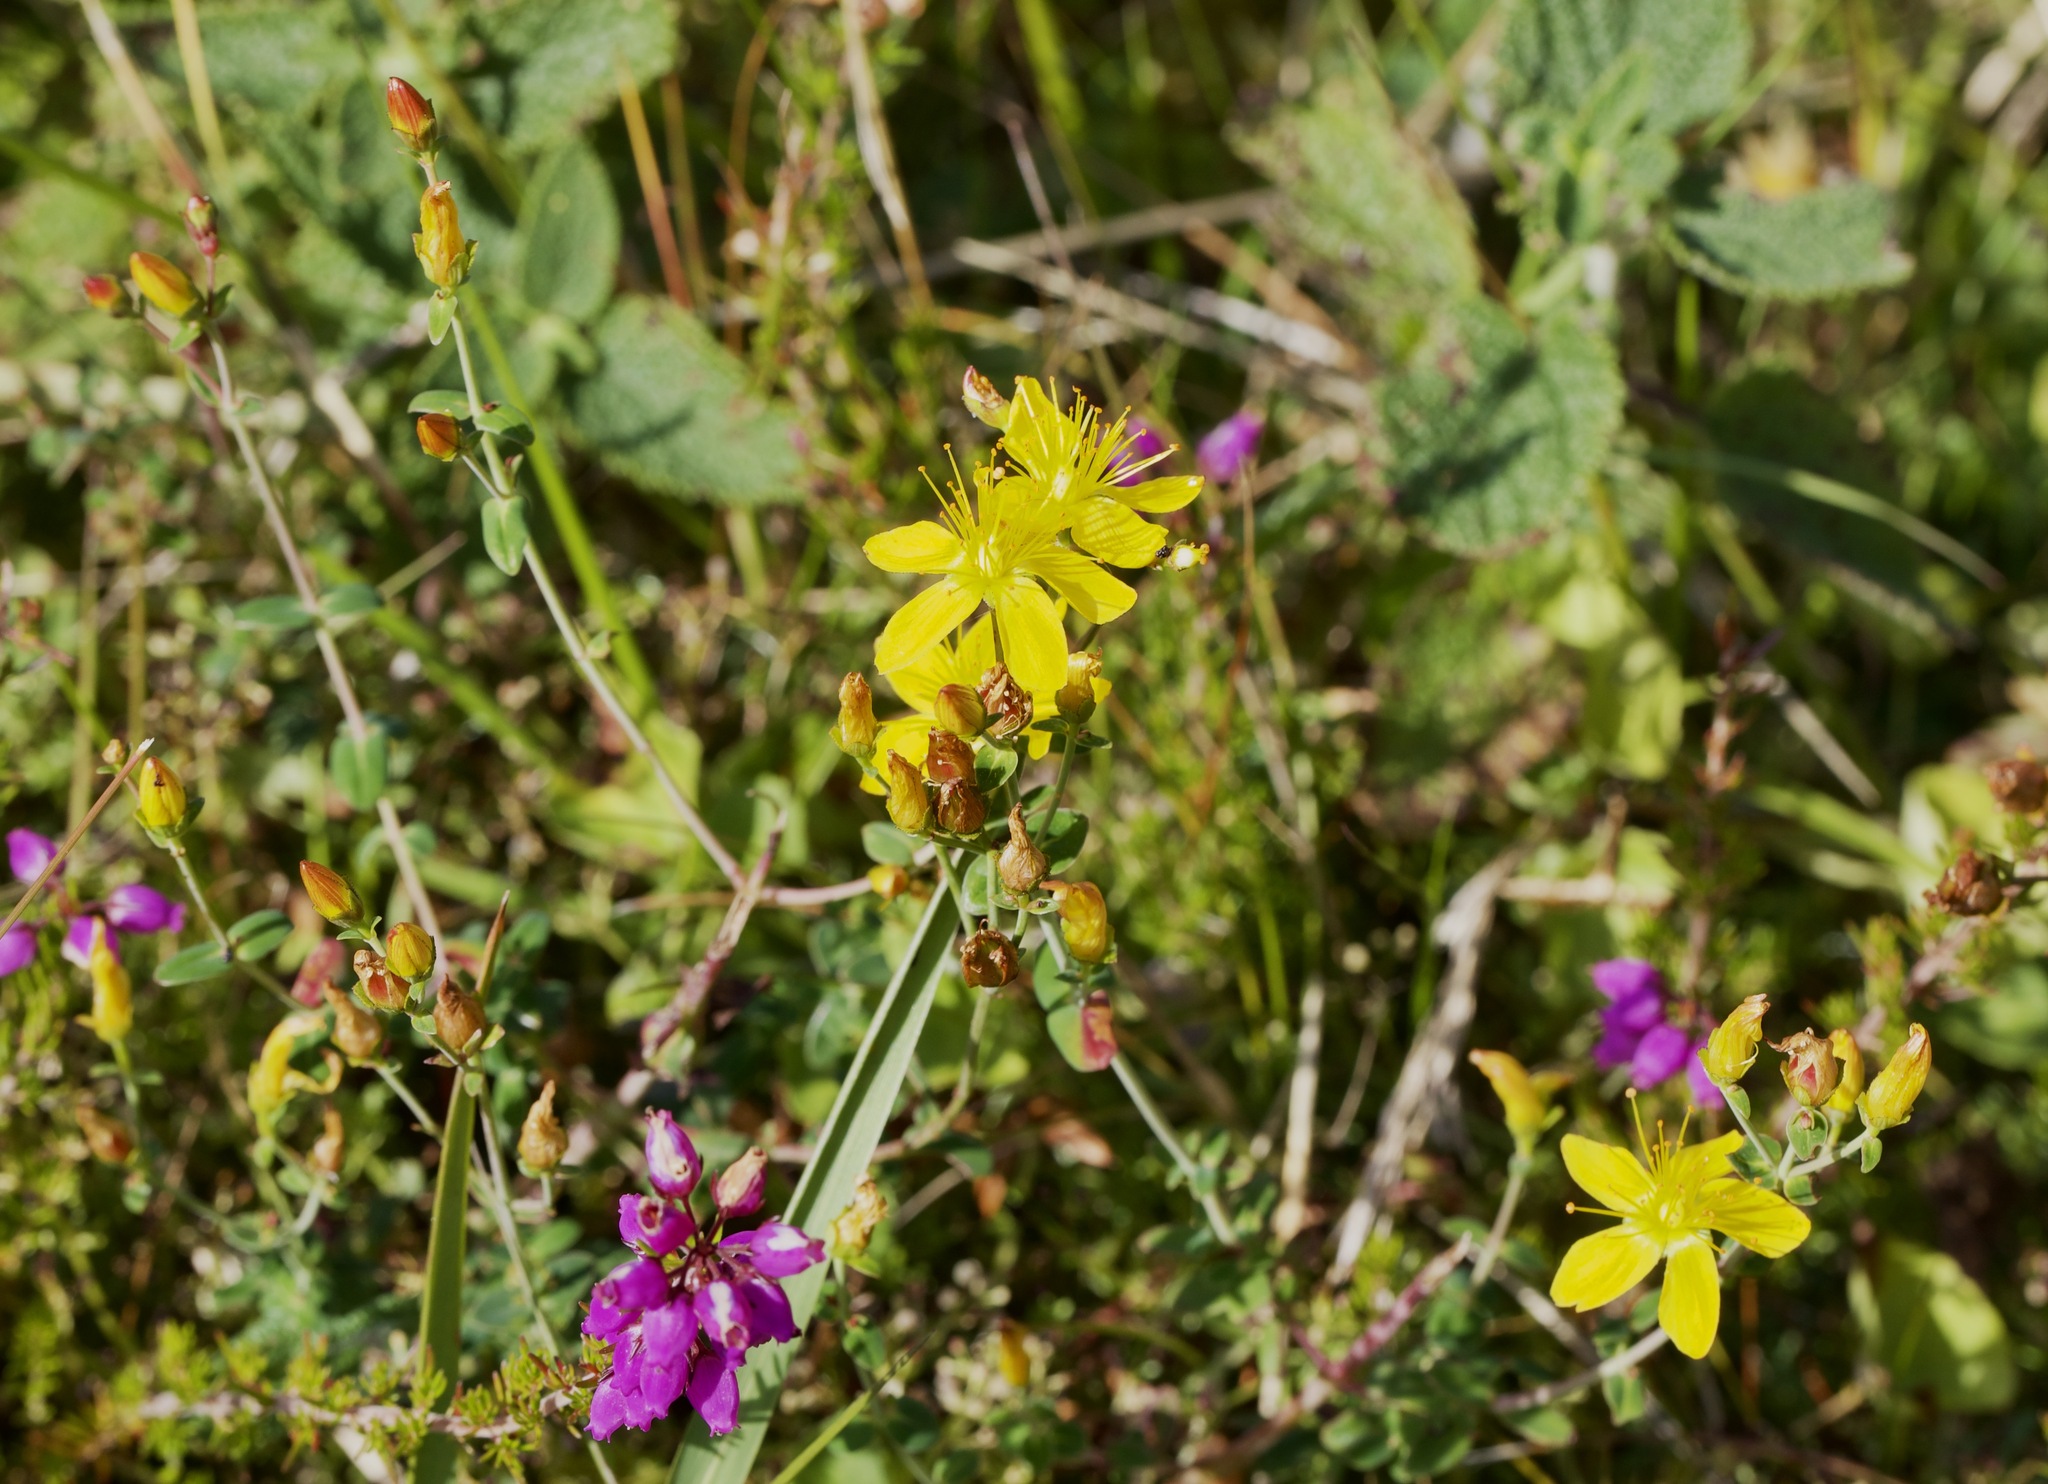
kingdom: Plantae
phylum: Tracheophyta
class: Magnoliopsida
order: Malpighiales
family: Hypericaceae
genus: Hypericum
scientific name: Hypericum pulchrum
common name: Slender st. john's-wort
